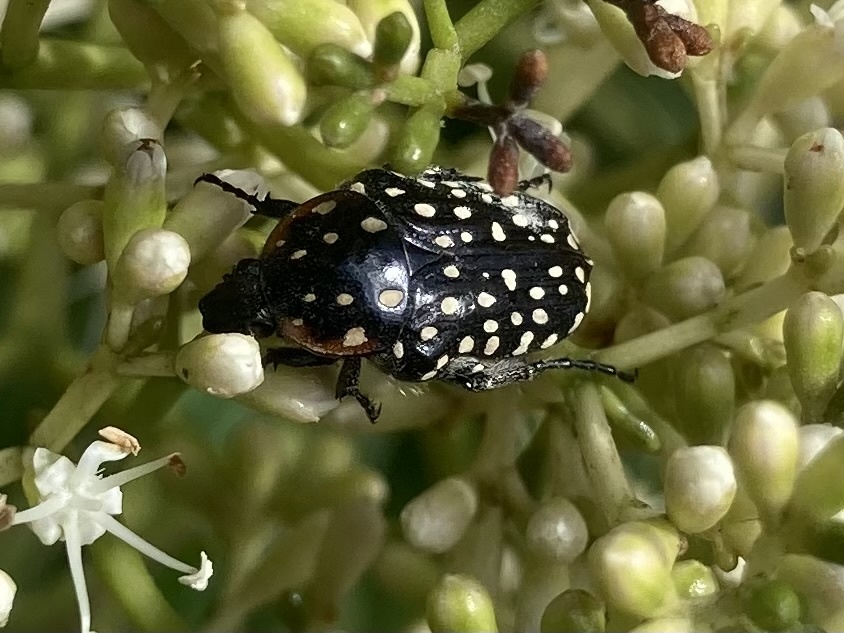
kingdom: Animalia
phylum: Arthropoda
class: Insecta
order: Coleoptera
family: Scarabaeidae
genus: Oxythyrea
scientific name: Oxythyrea
